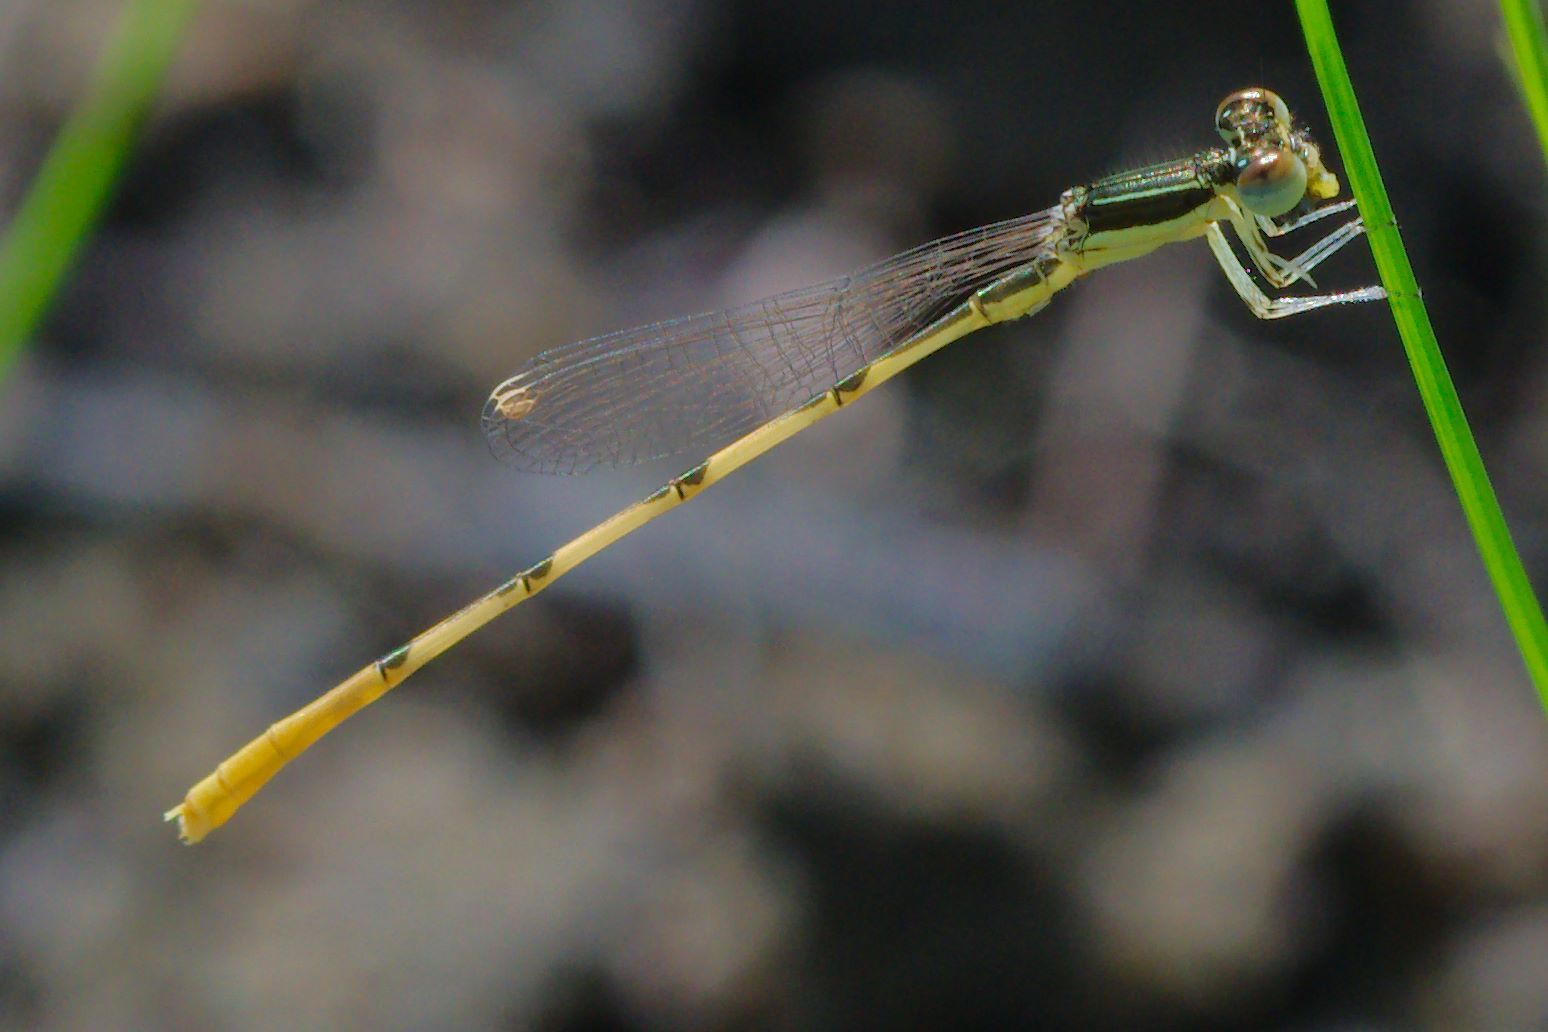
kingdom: Animalia
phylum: Arthropoda
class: Insecta
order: Odonata
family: Coenagrionidae
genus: Ischnura
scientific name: Ischnura hastata
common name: Citrine forktail
